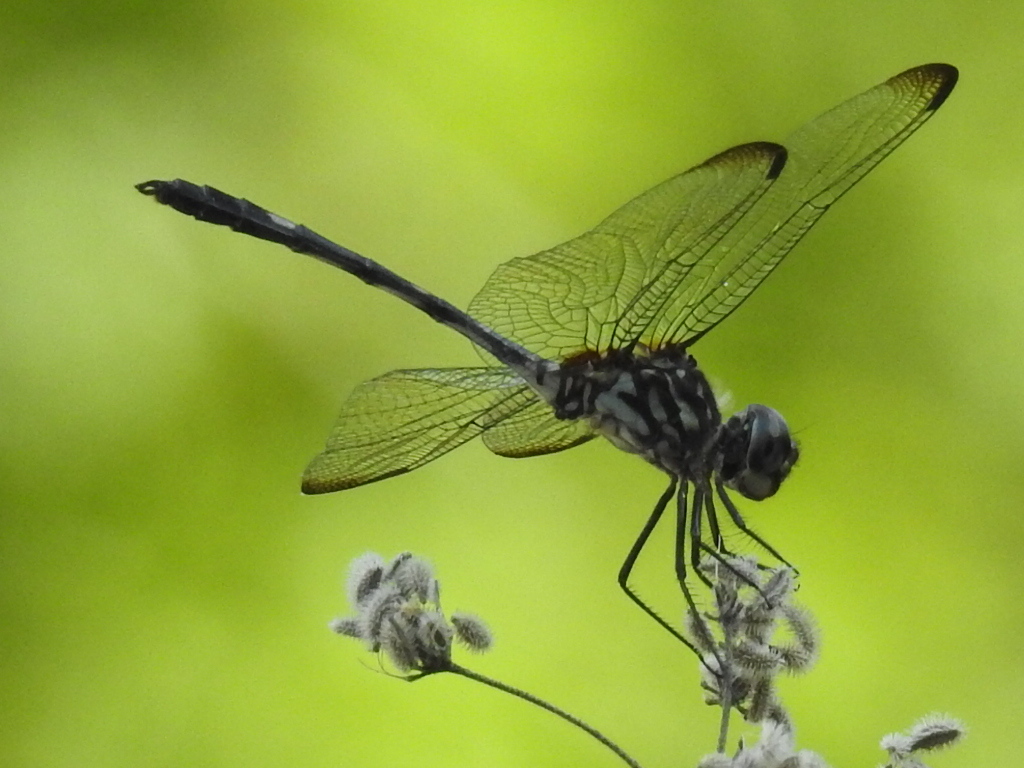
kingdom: Animalia
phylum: Arthropoda
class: Insecta
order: Odonata
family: Libellulidae
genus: Dythemis
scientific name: Dythemis velox
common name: Swift setwing
